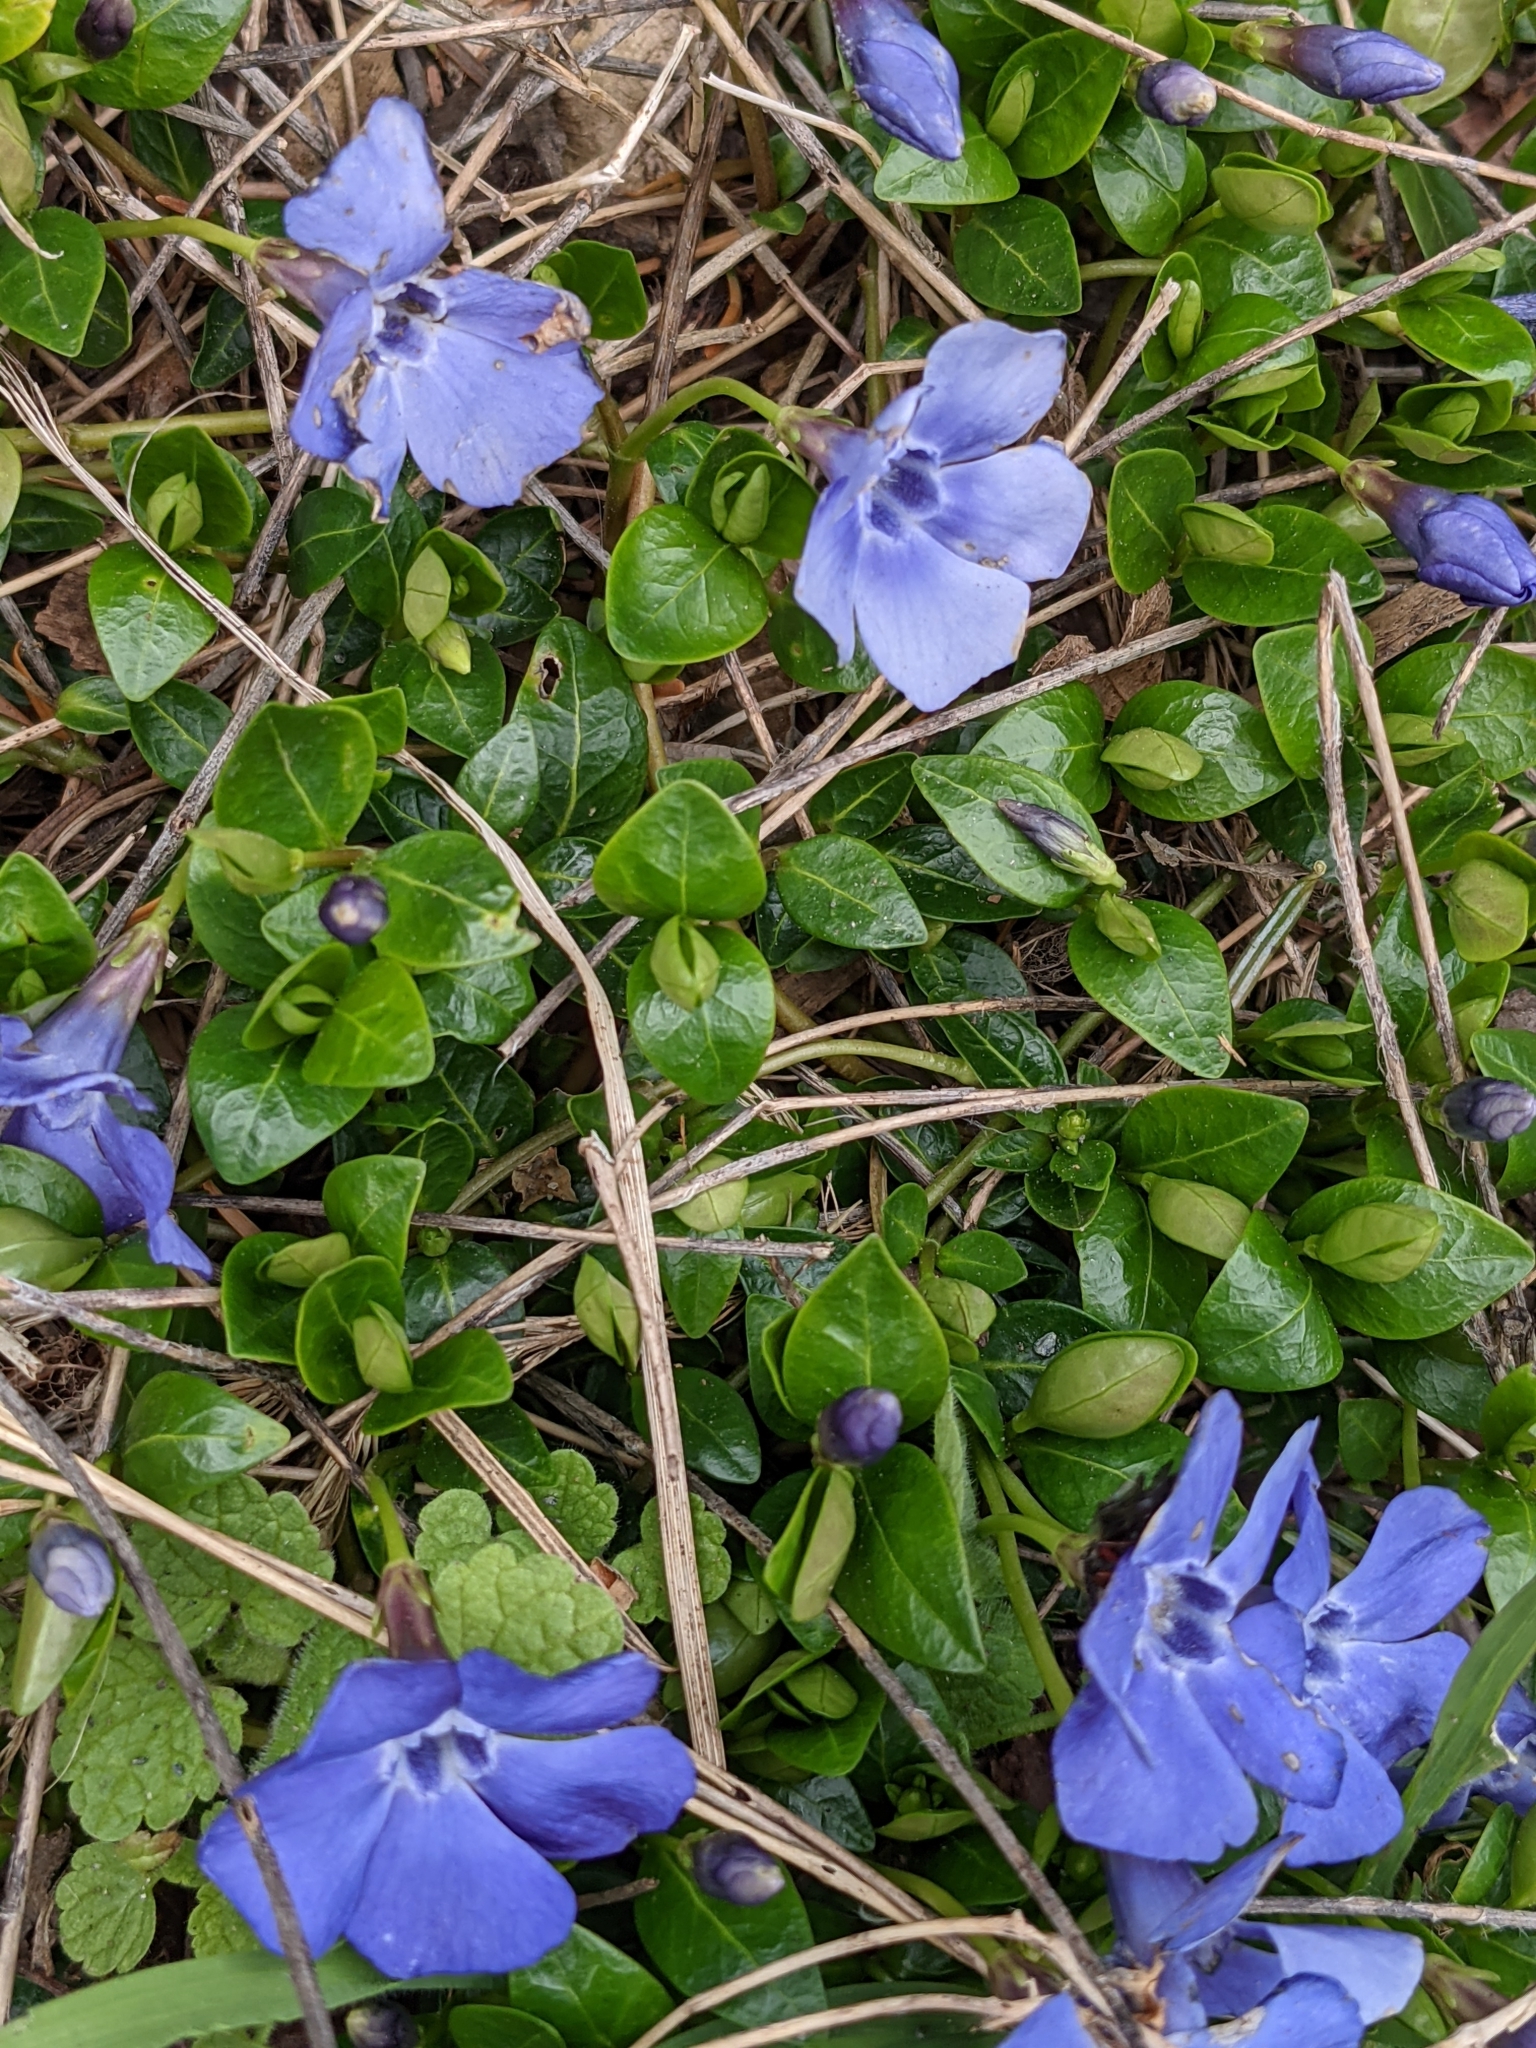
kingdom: Plantae
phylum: Tracheophyta
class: Magnoliopsida
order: Gentianales
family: Apocynaceae
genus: Vinca
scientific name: Vinca minor
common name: Lesser periwinkle
